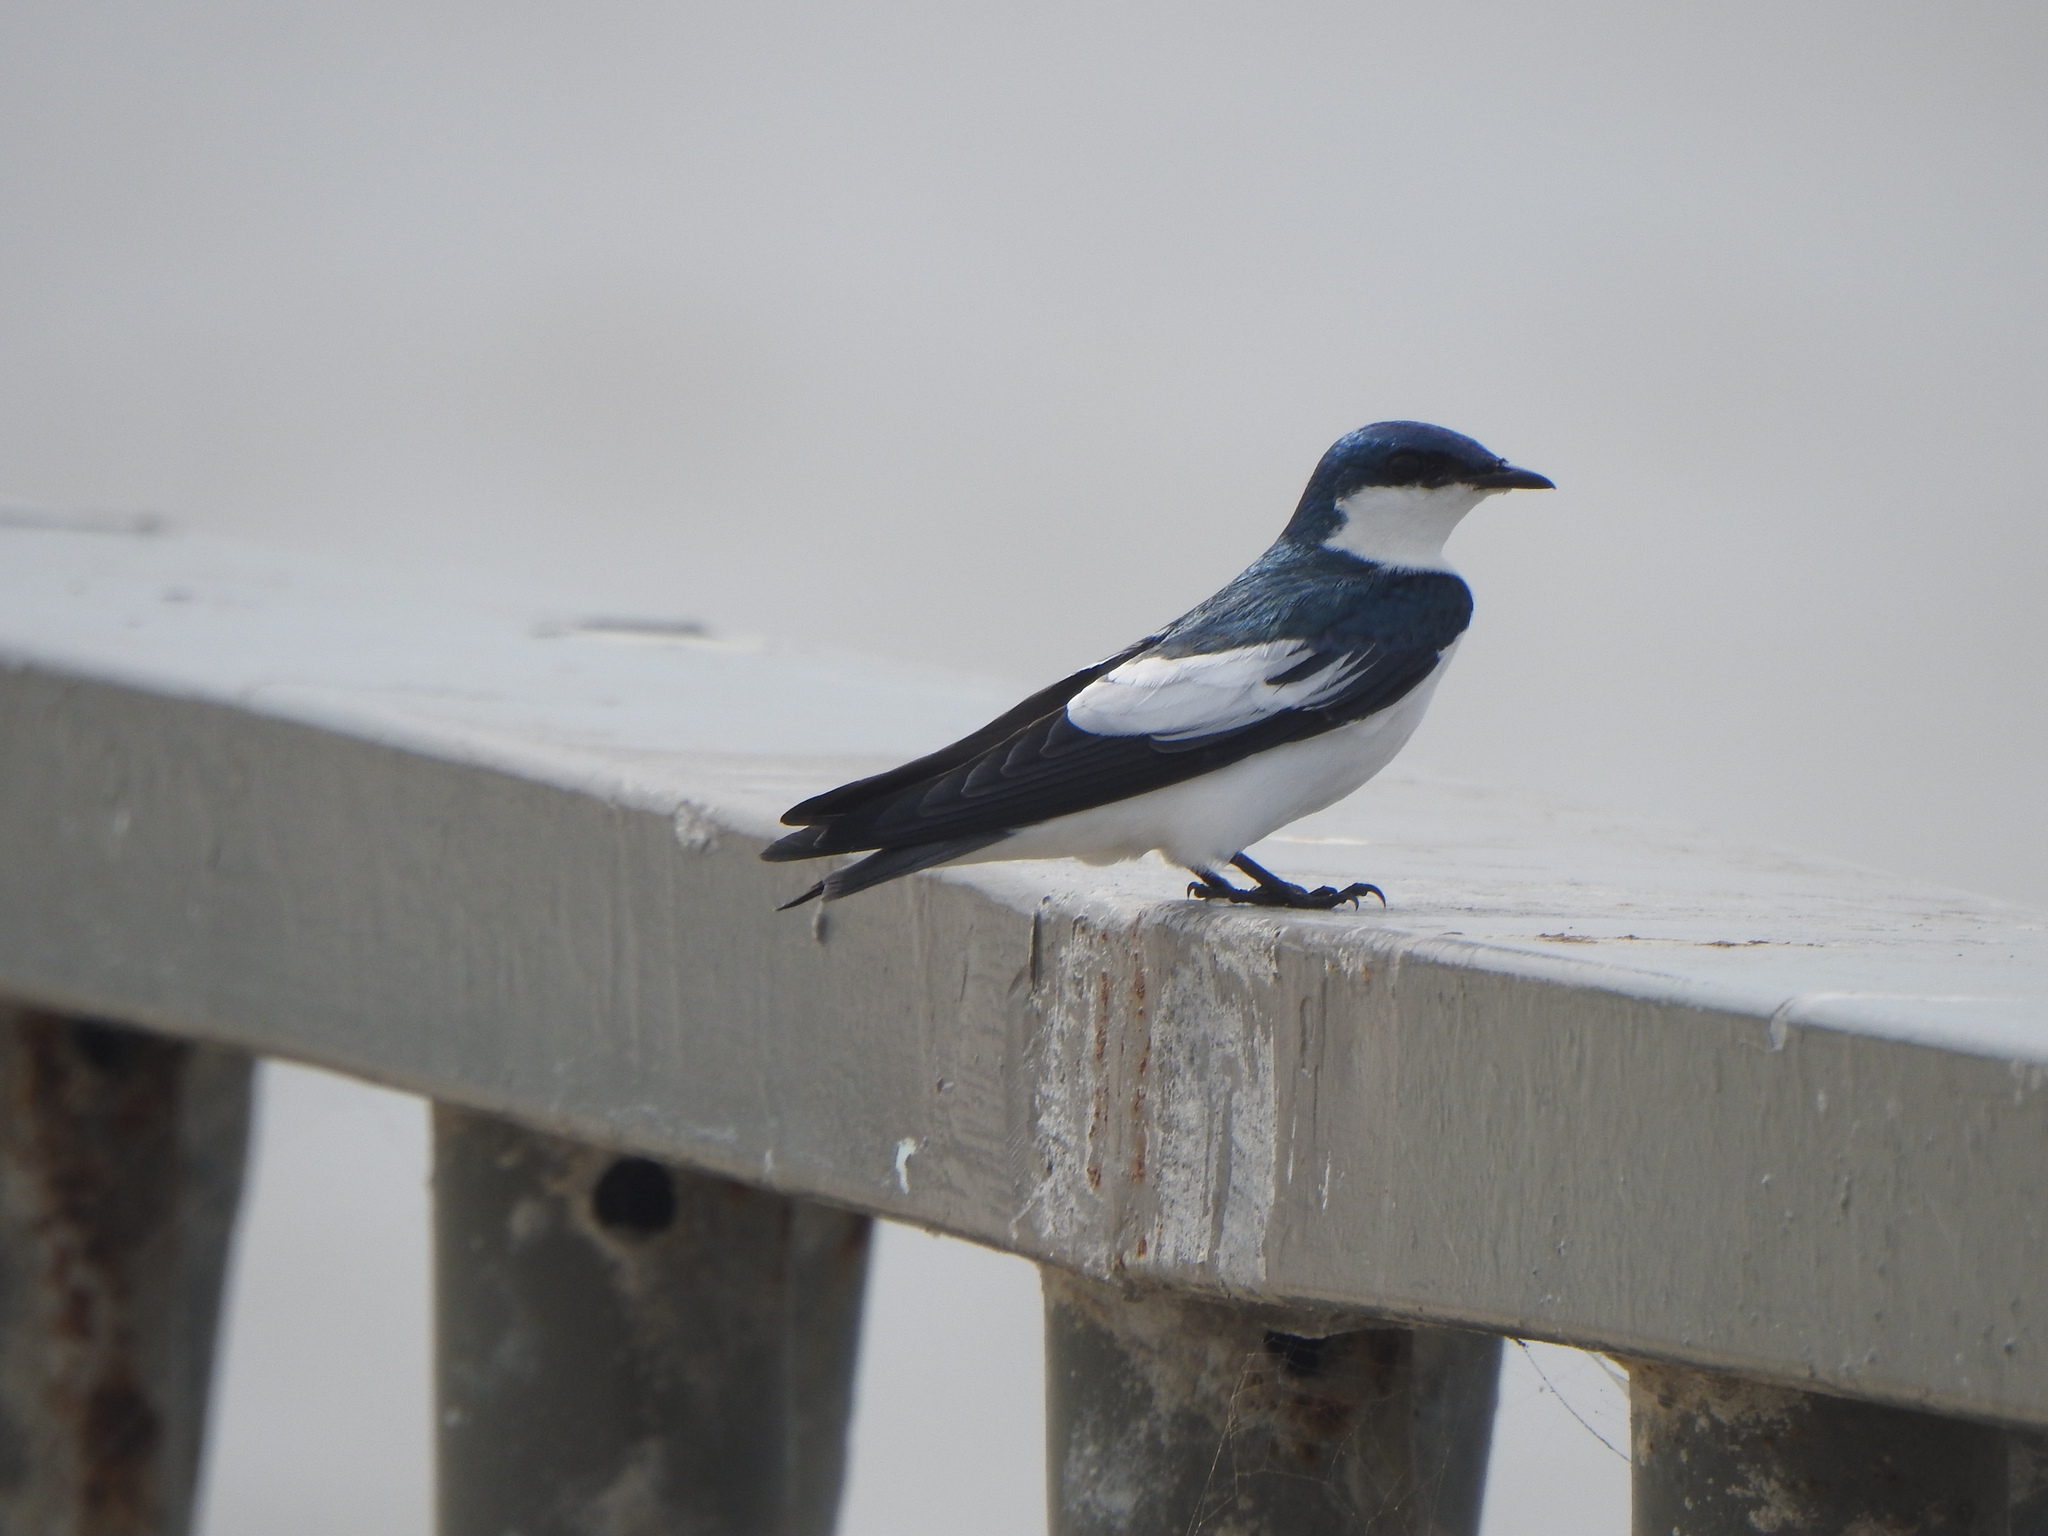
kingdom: Animalia
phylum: Chordata
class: Aves
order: Passeriformes
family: Hirundinidae
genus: Tachycineta
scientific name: Tachycineta albiventer
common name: White-winged swallow
